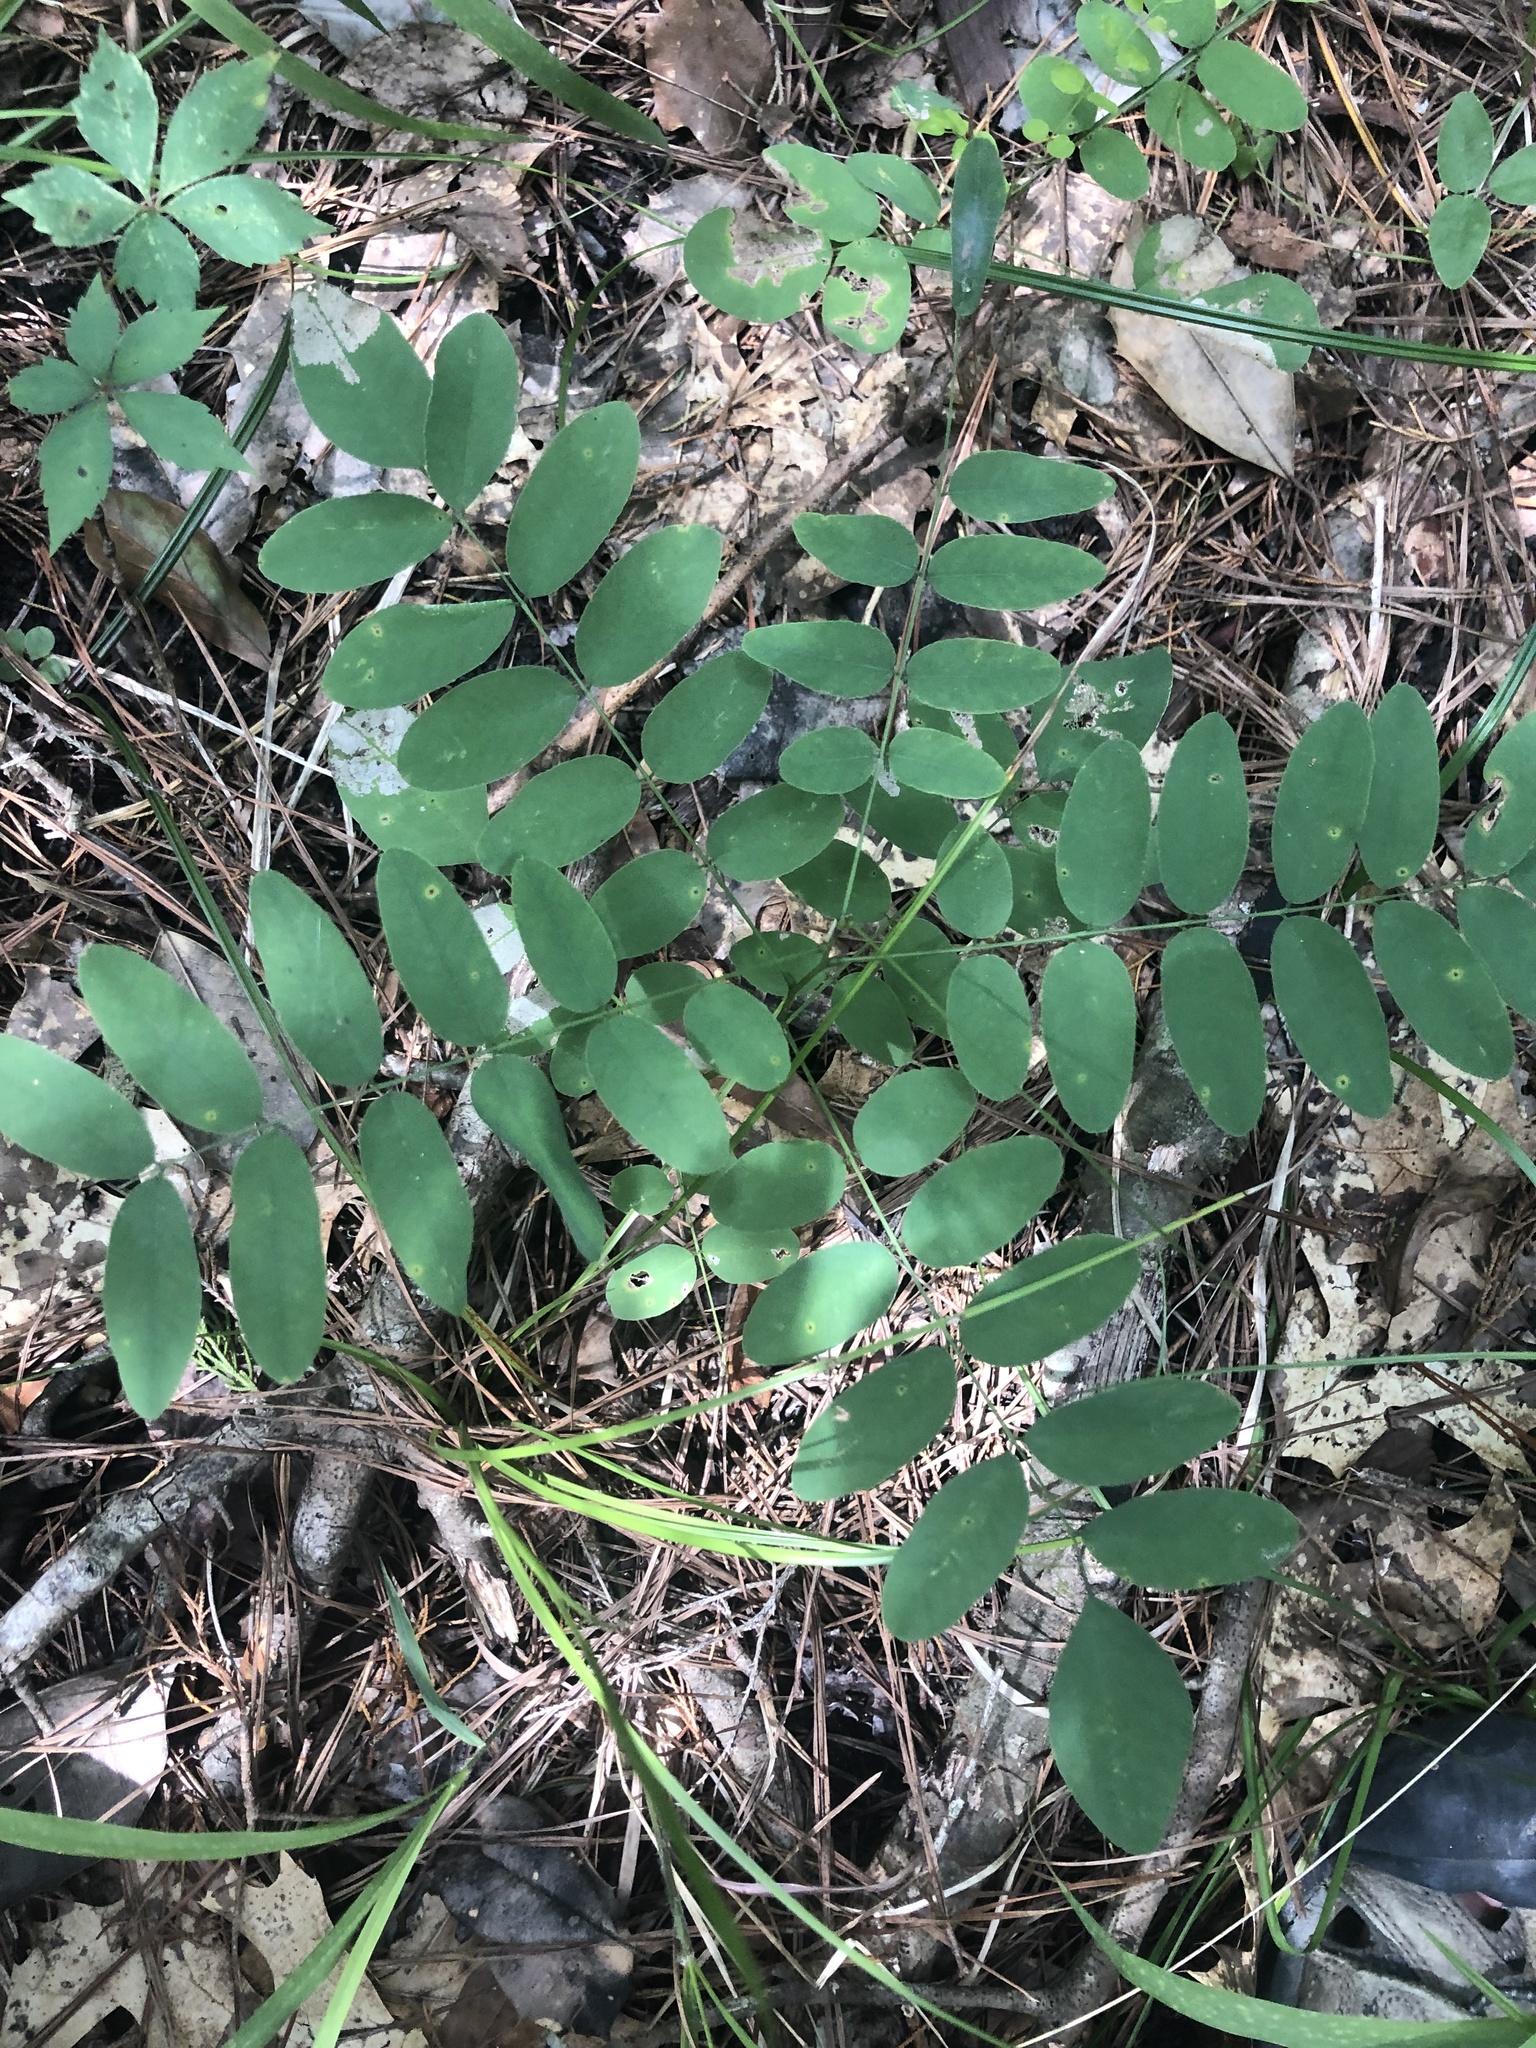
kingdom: Plantae
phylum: Tracheophyta
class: Magnoliopsida
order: Fabales
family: Fabaceae
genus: Amorpha
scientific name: Amorpha fruticosa
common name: False indigo
